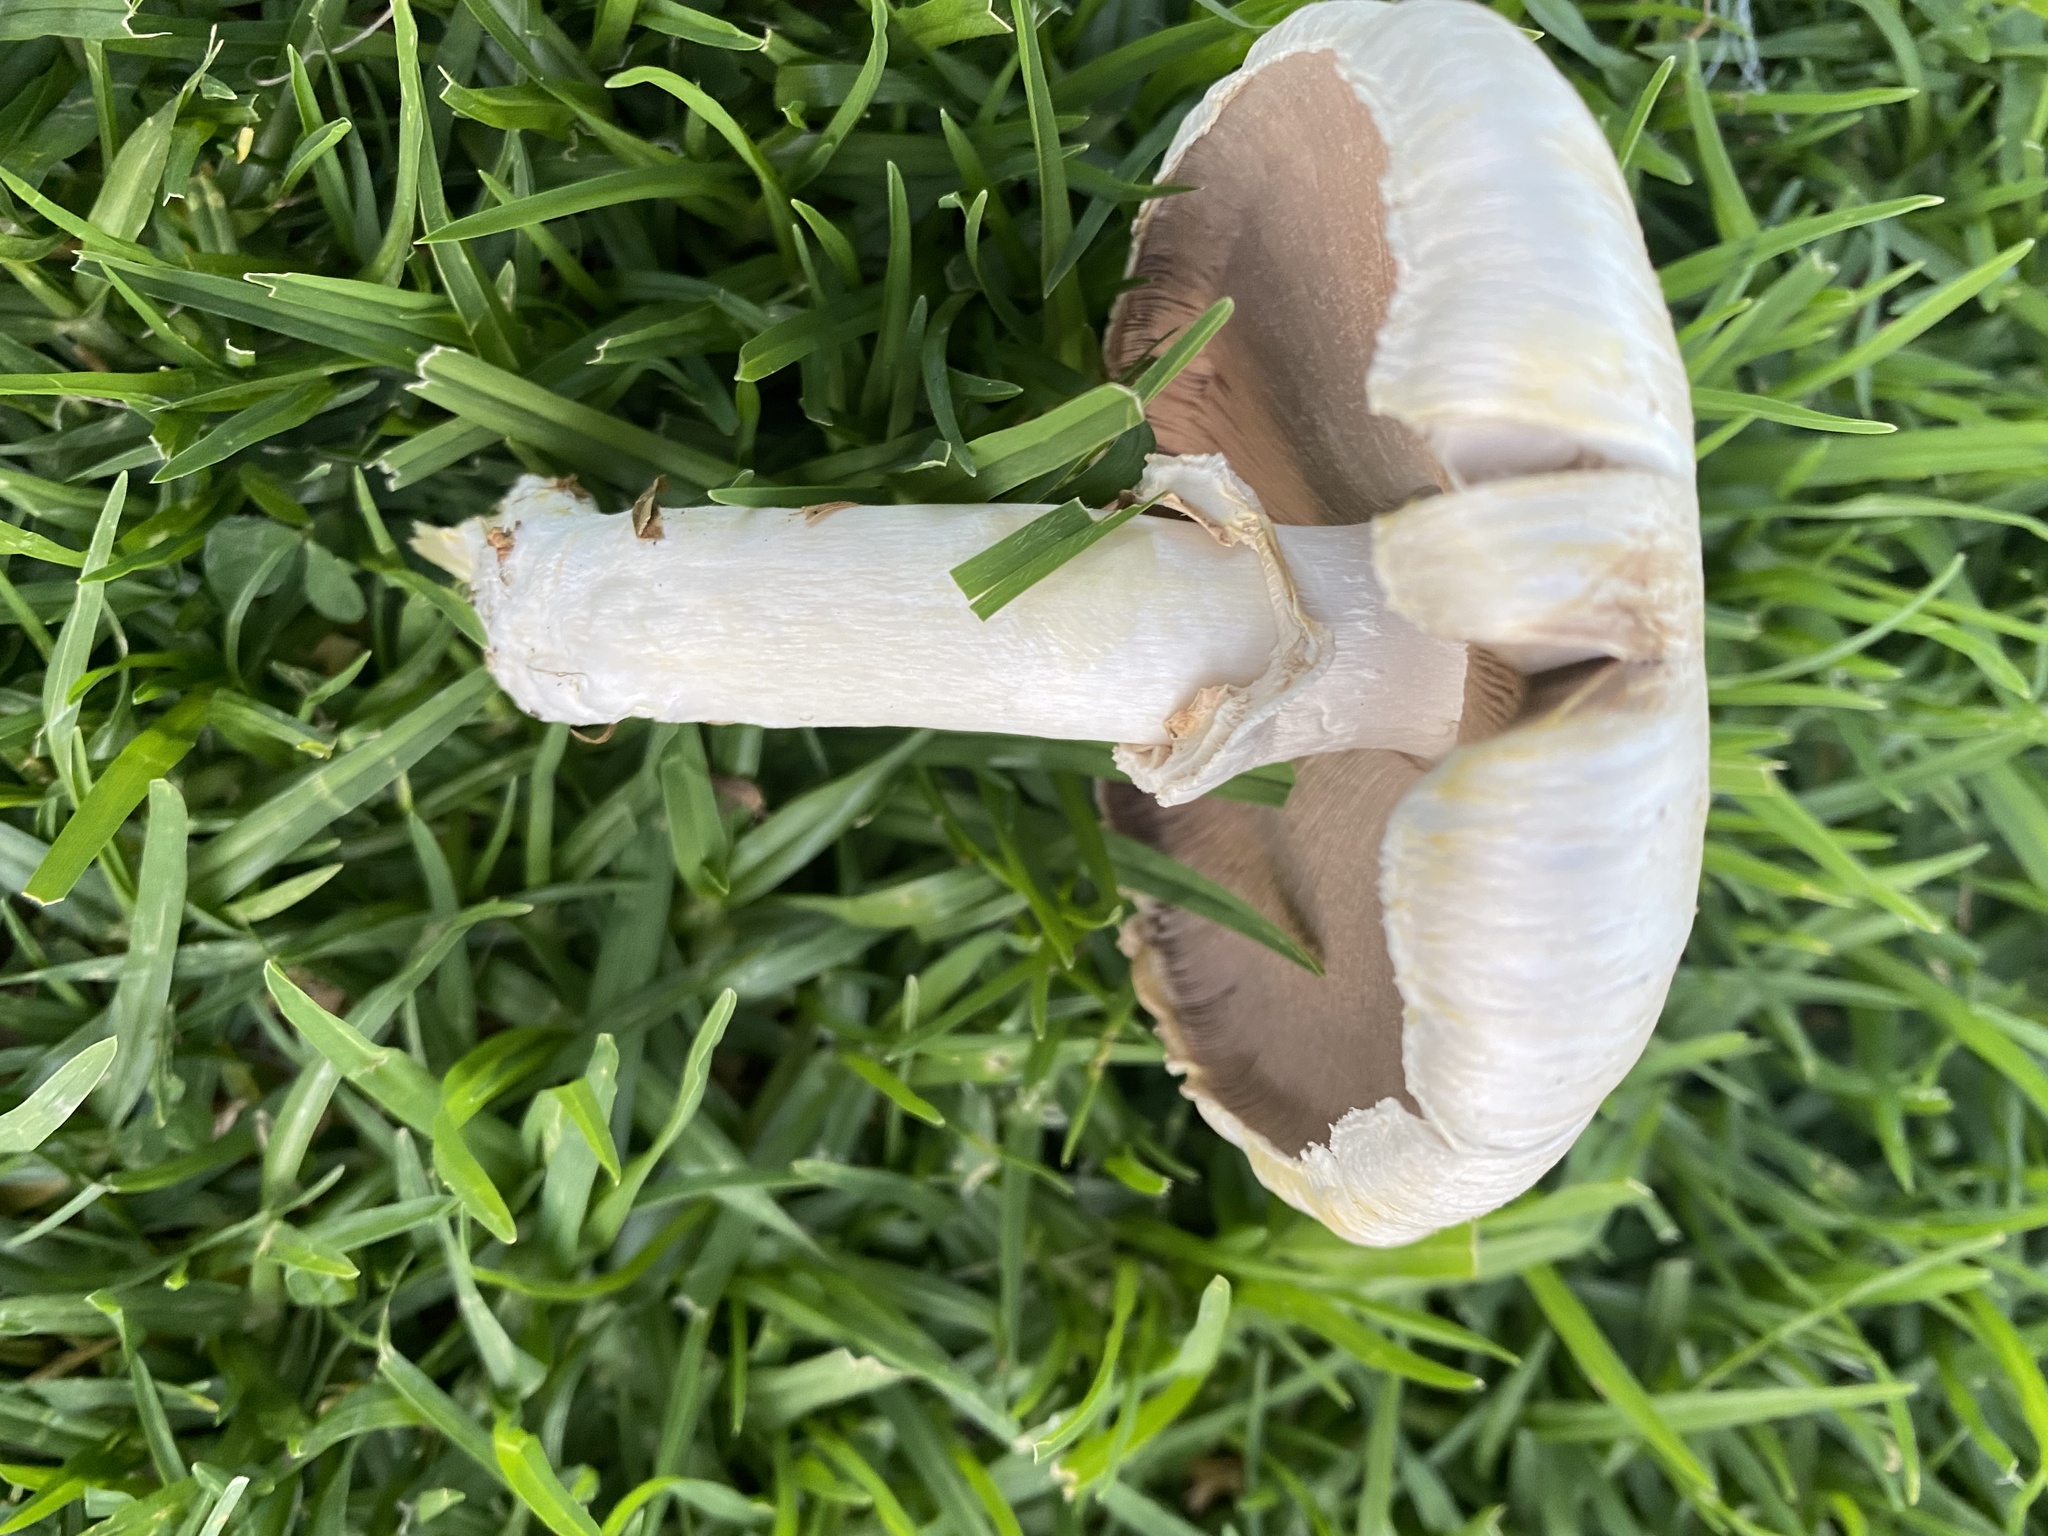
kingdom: Fungi
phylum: Basidiomycota
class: Agaricomycetes
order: Agaricales
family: Agaricaceae
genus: Agaricus
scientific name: Agaricus xanthodermus
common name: Yellow stainer
